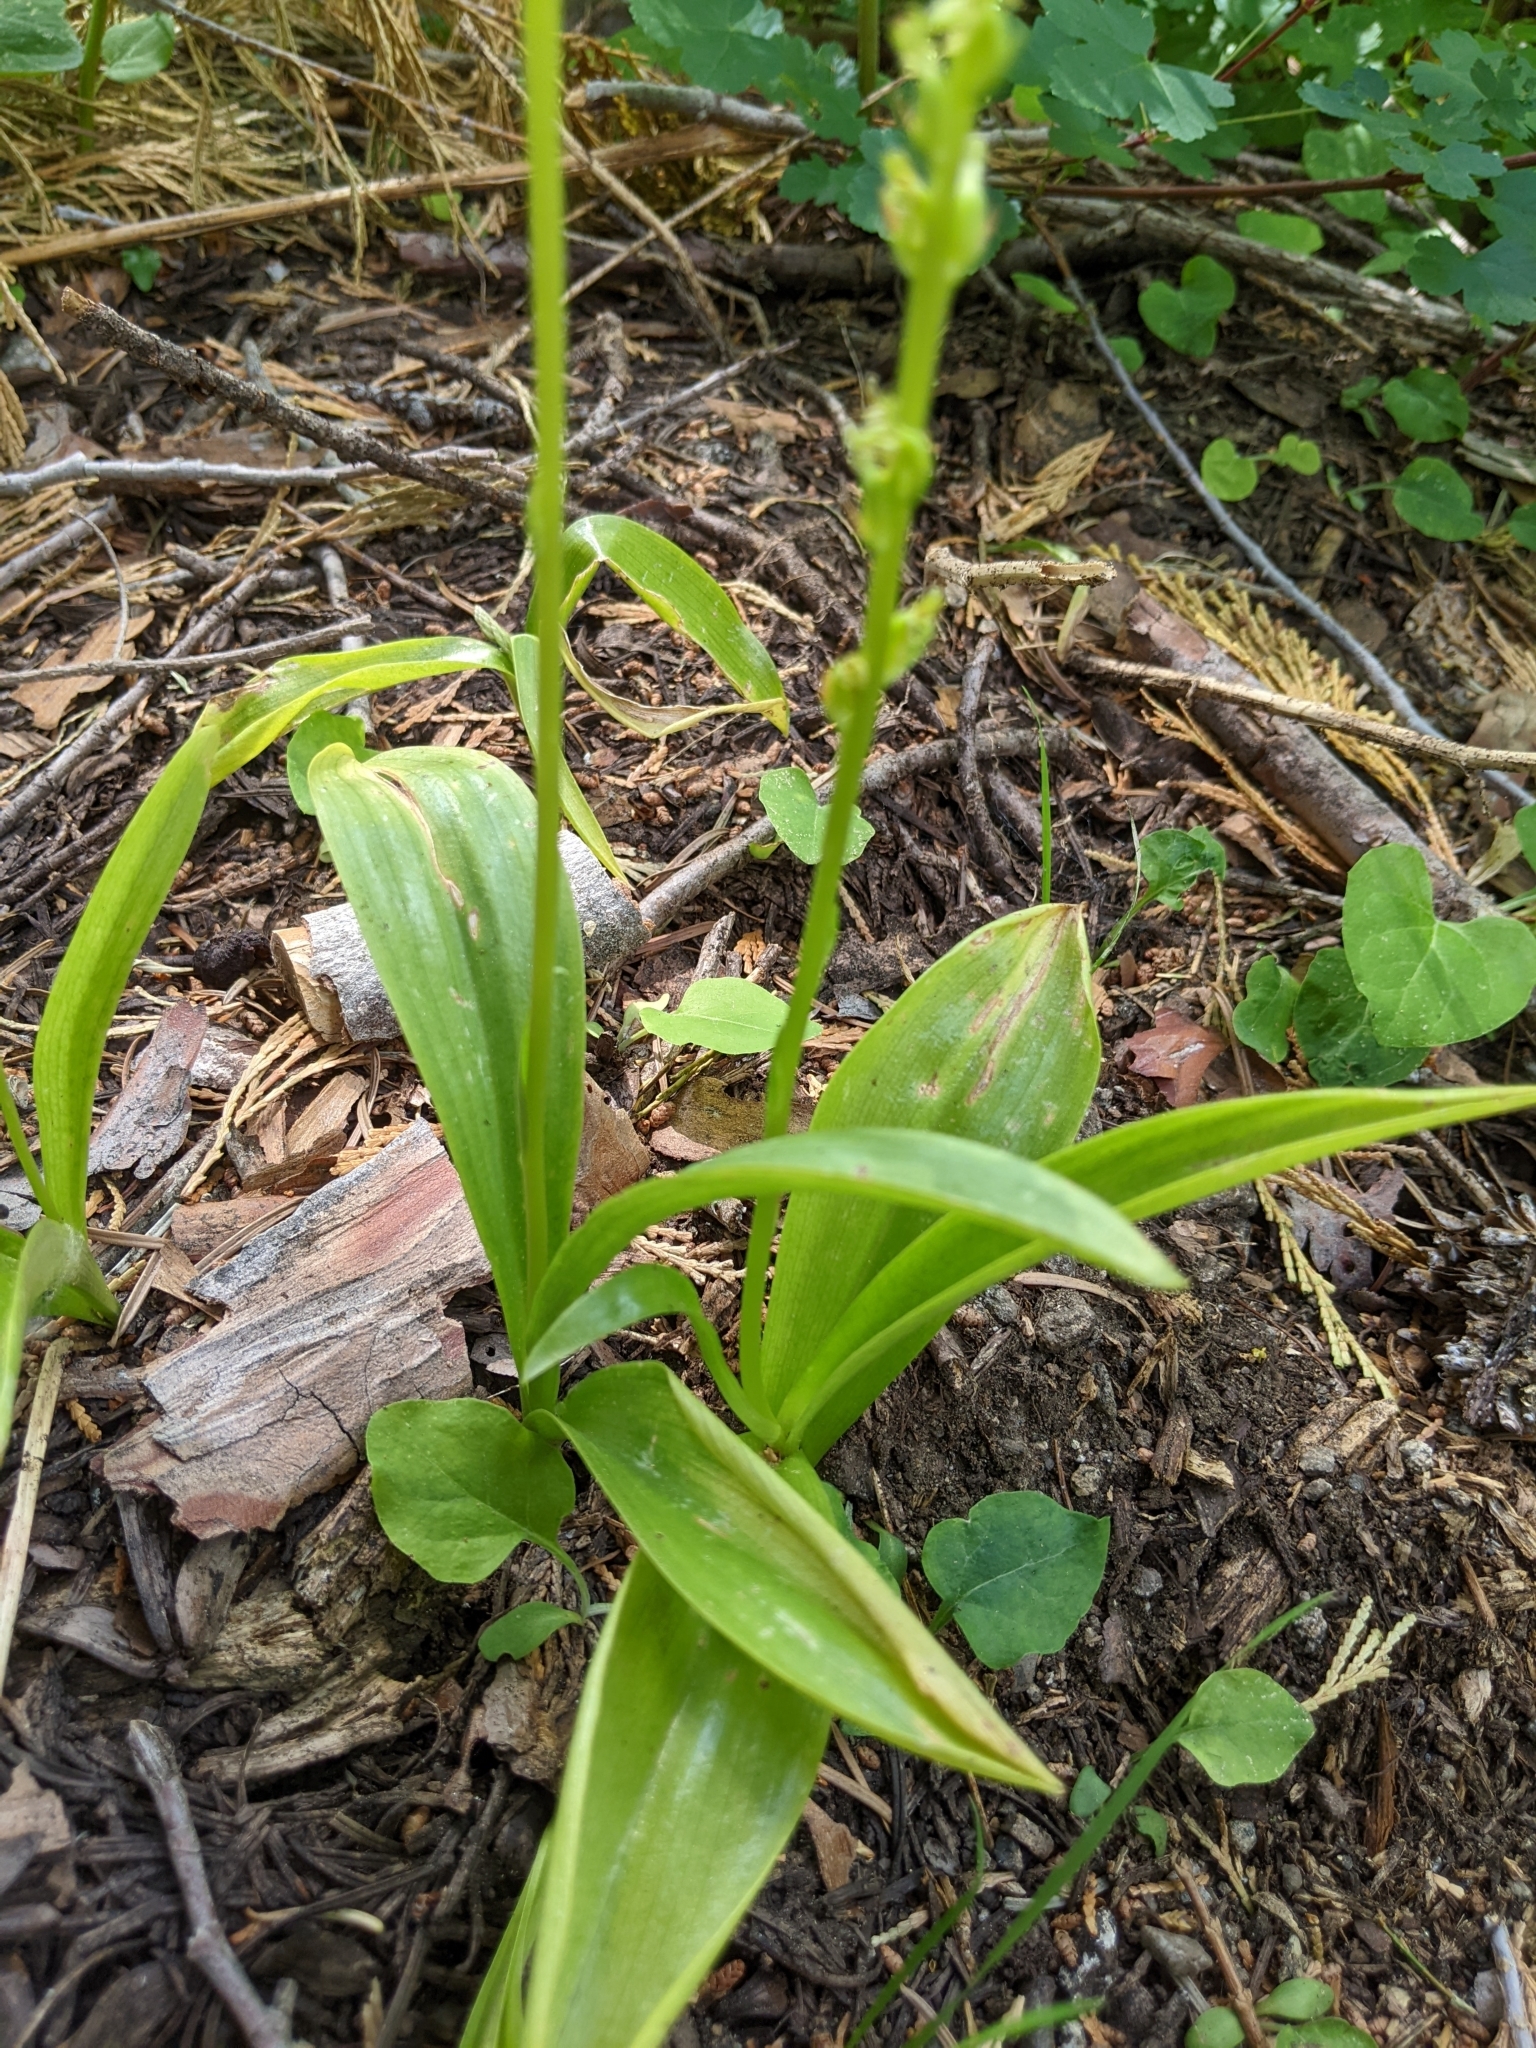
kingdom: Plantae
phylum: Tracheophyta
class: Liliopsida
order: Asparagales
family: Orchidaceae
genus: Platanthera
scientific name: Platanthera unalascensis
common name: Alaska bog orchid
